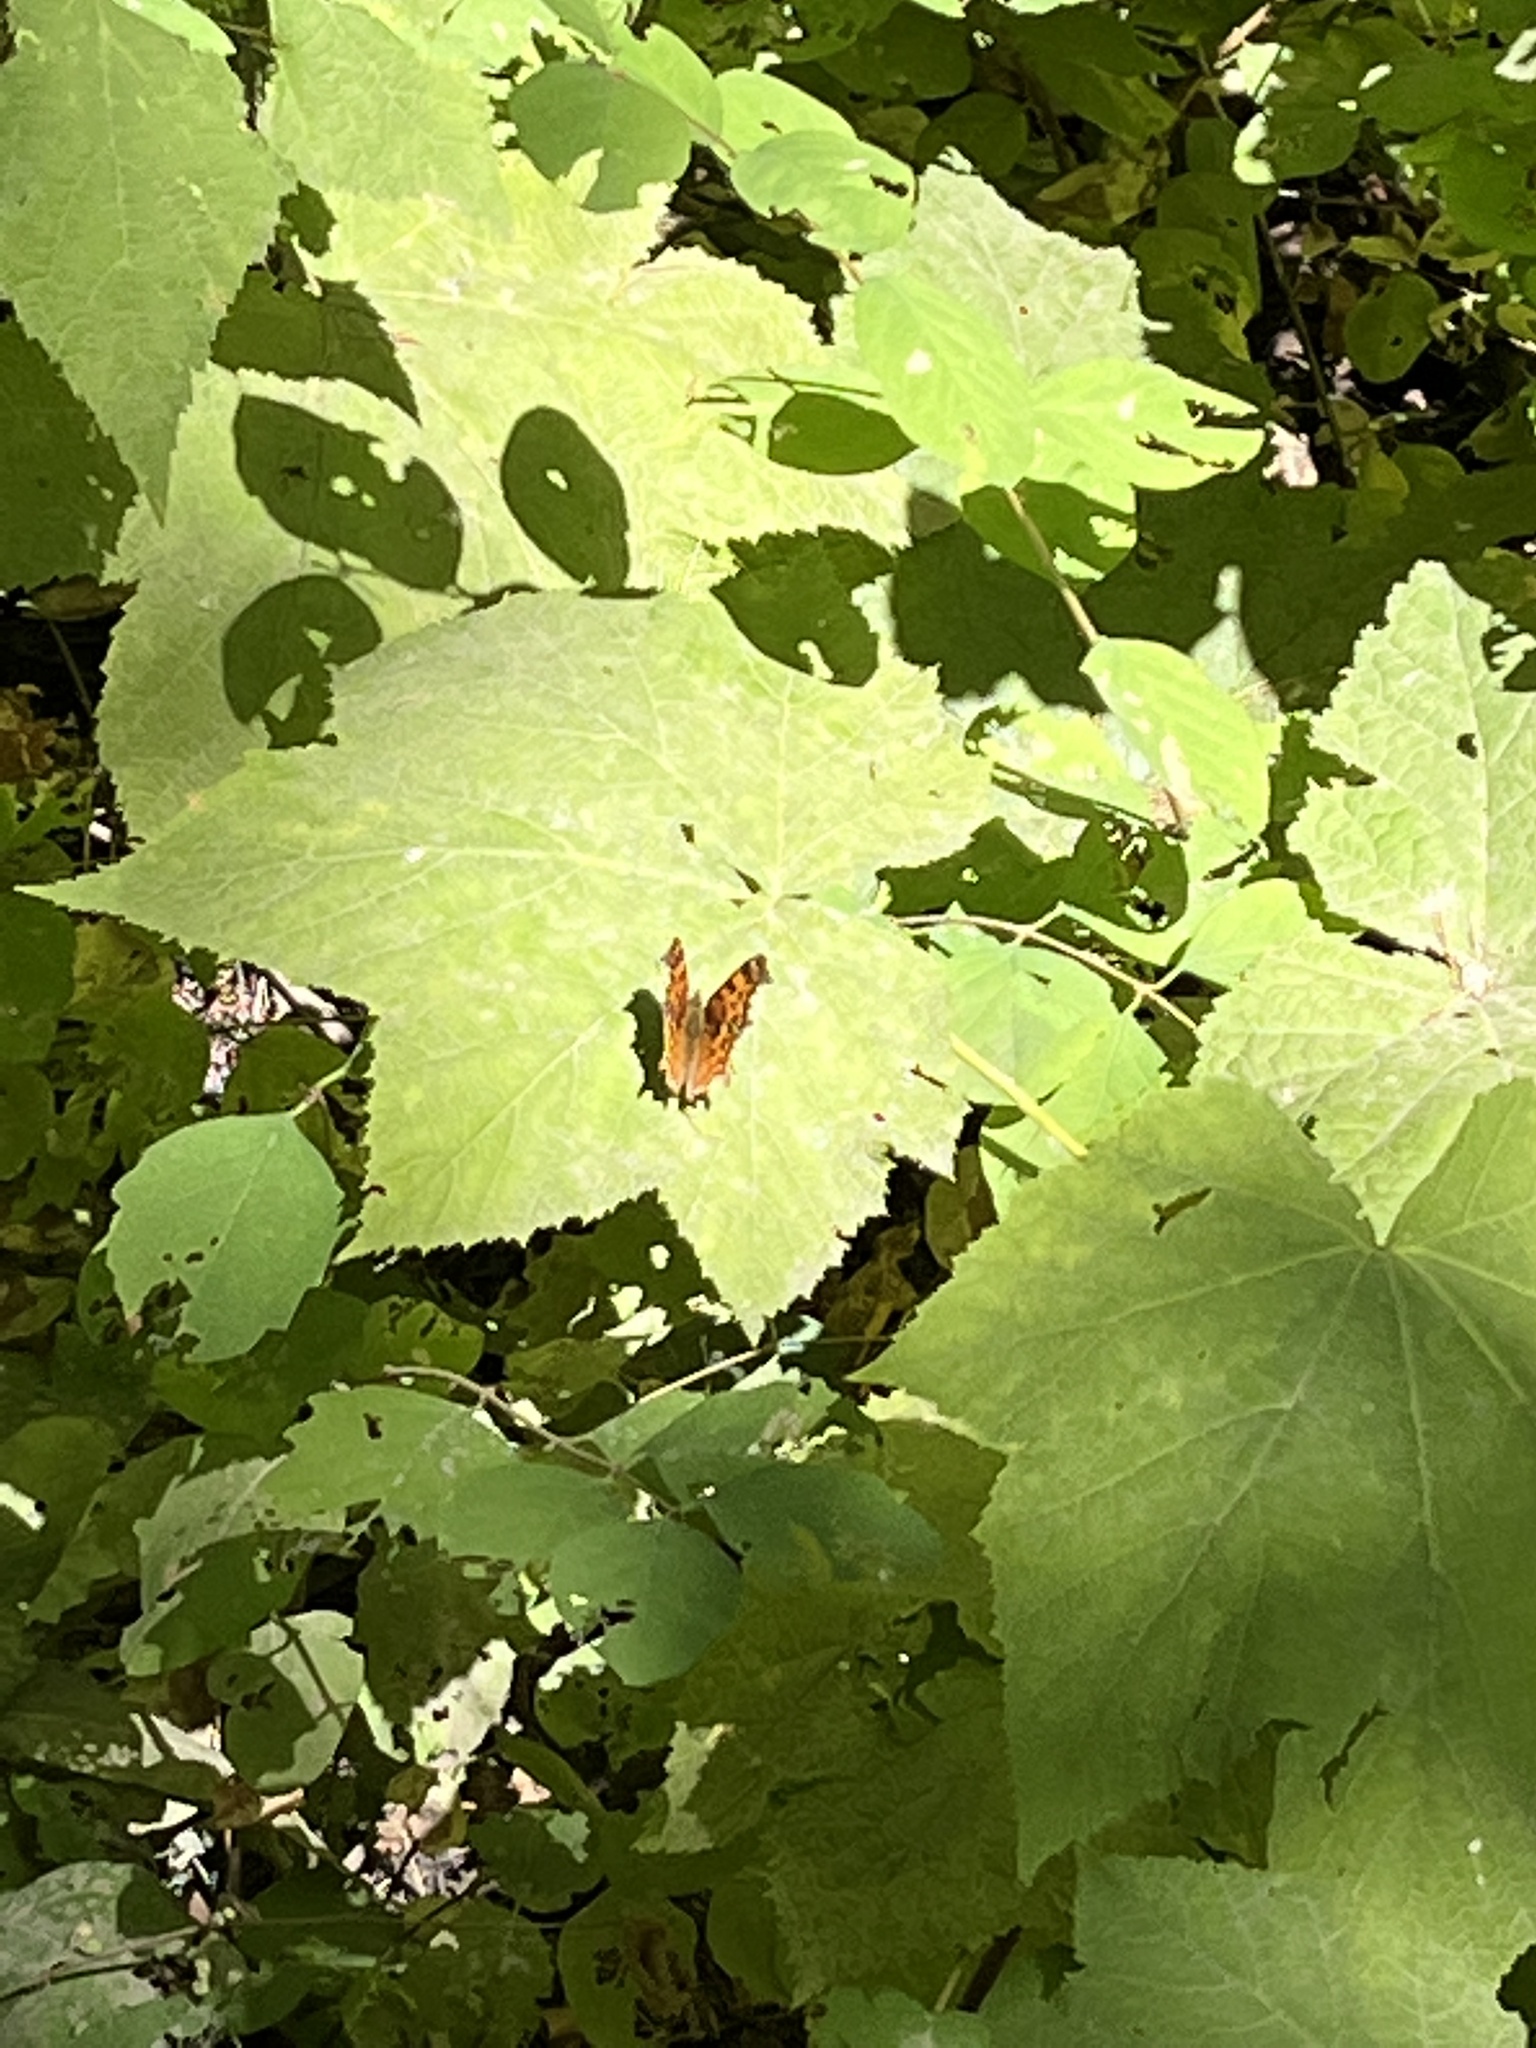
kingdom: Animalia
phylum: Arthropoda
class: Insecta
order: Lepidoptera
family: Nymphalidae
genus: Polygonia
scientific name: Polygonia satyrus
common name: Satyr angle wing
